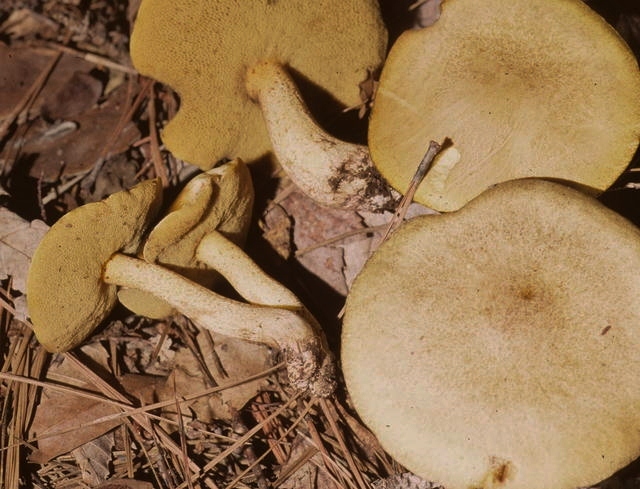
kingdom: Fungi
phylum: Basidiomycota
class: Agaricomycetes
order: Boletales
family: Suillaceae
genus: Suillus
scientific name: Suillus subaureus
